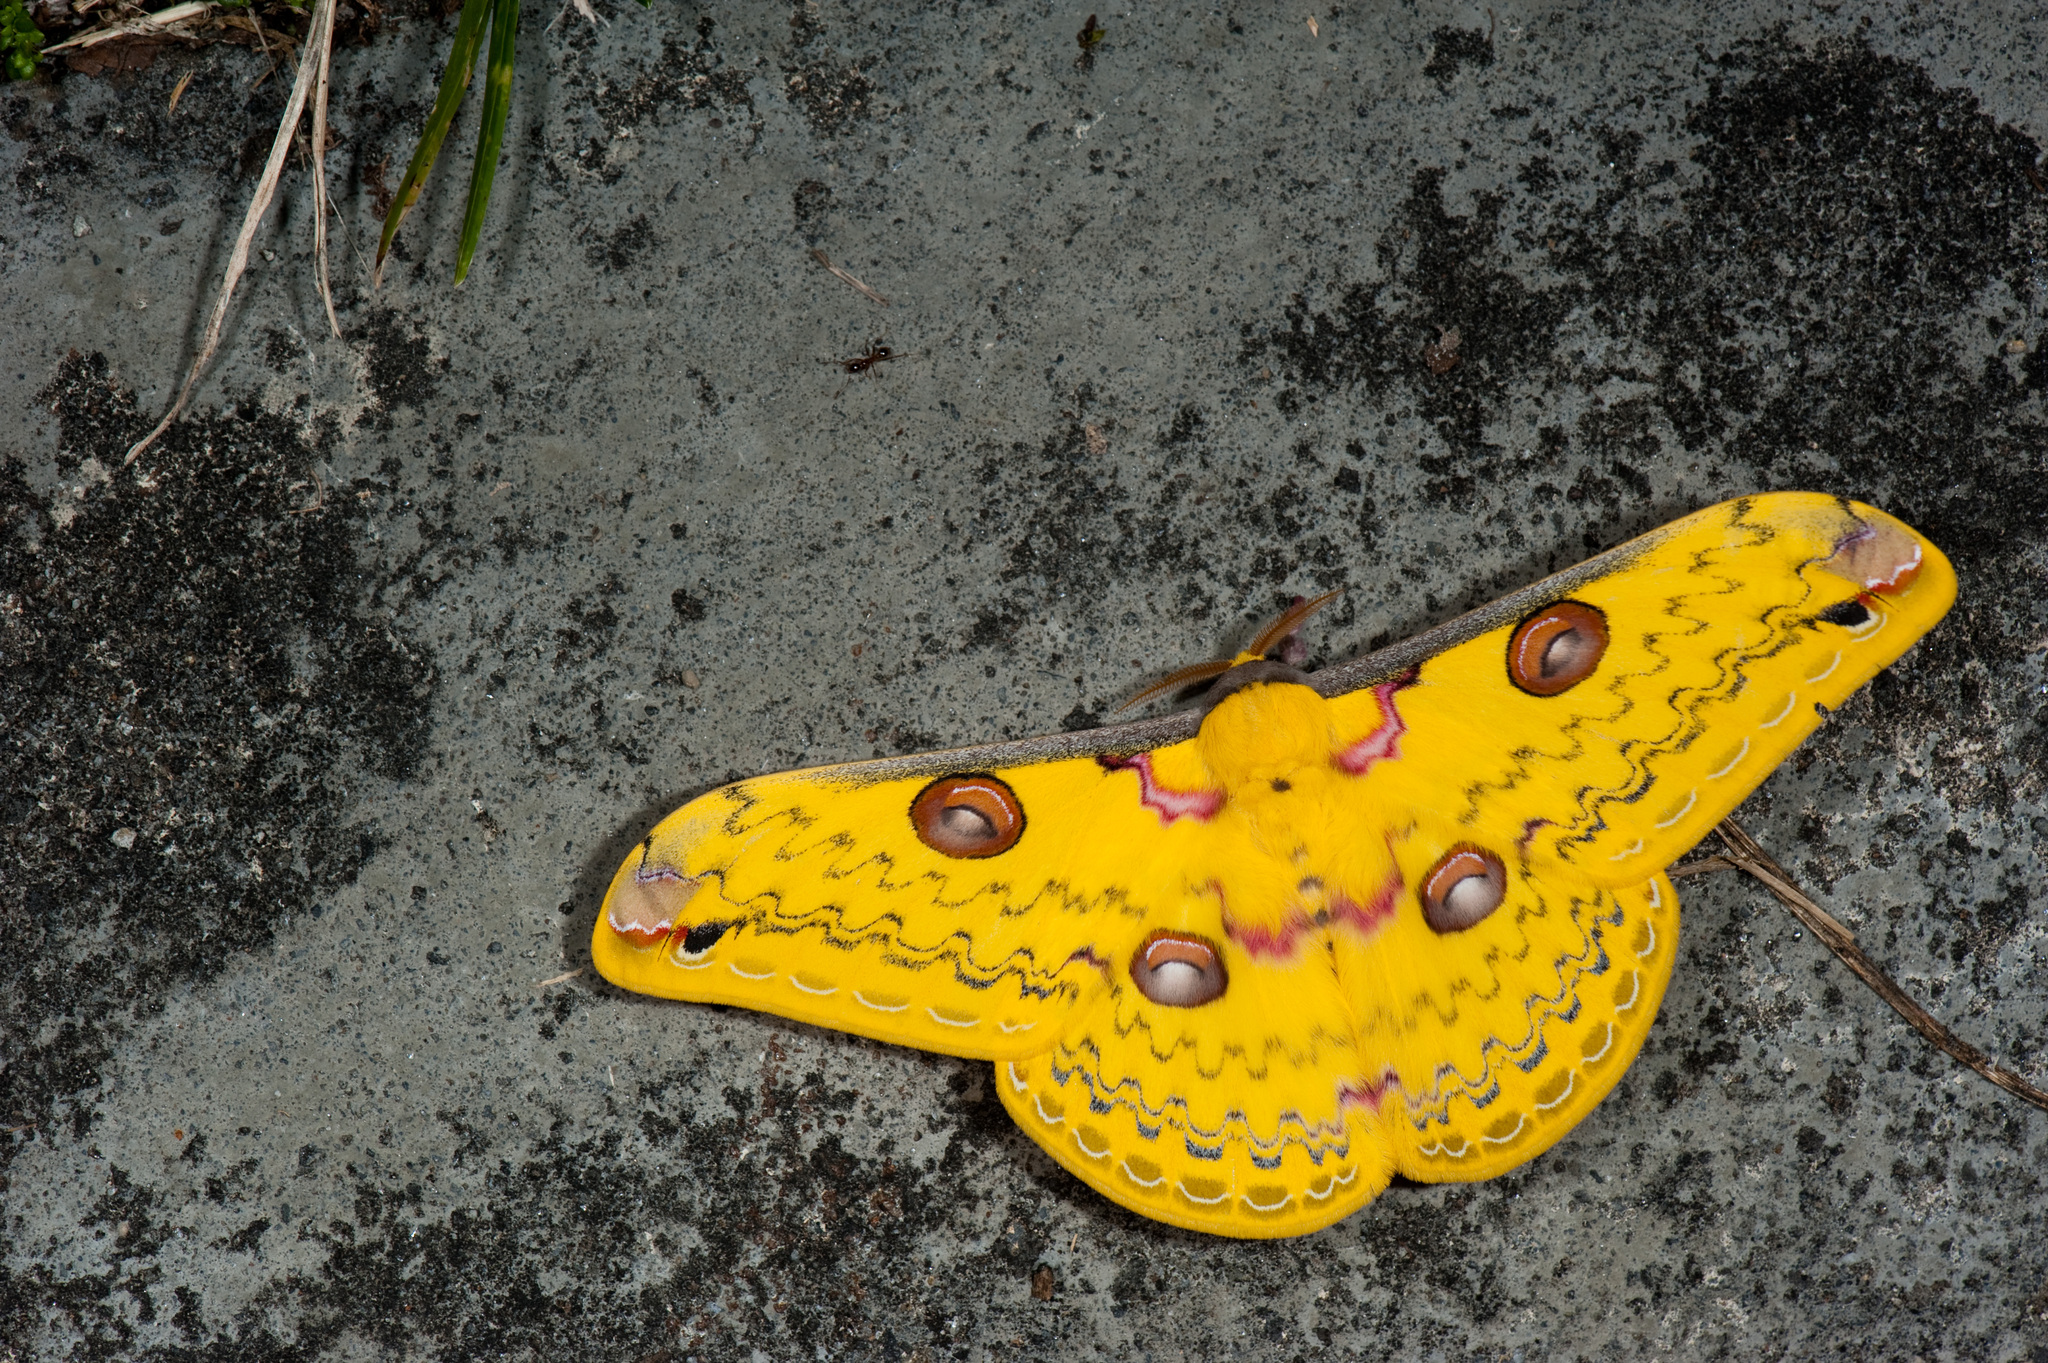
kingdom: Animalia
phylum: Arthropoda
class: Insecta
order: Lepidoptera
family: Saturniidae
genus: Loepa
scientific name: Loepa formosensis
